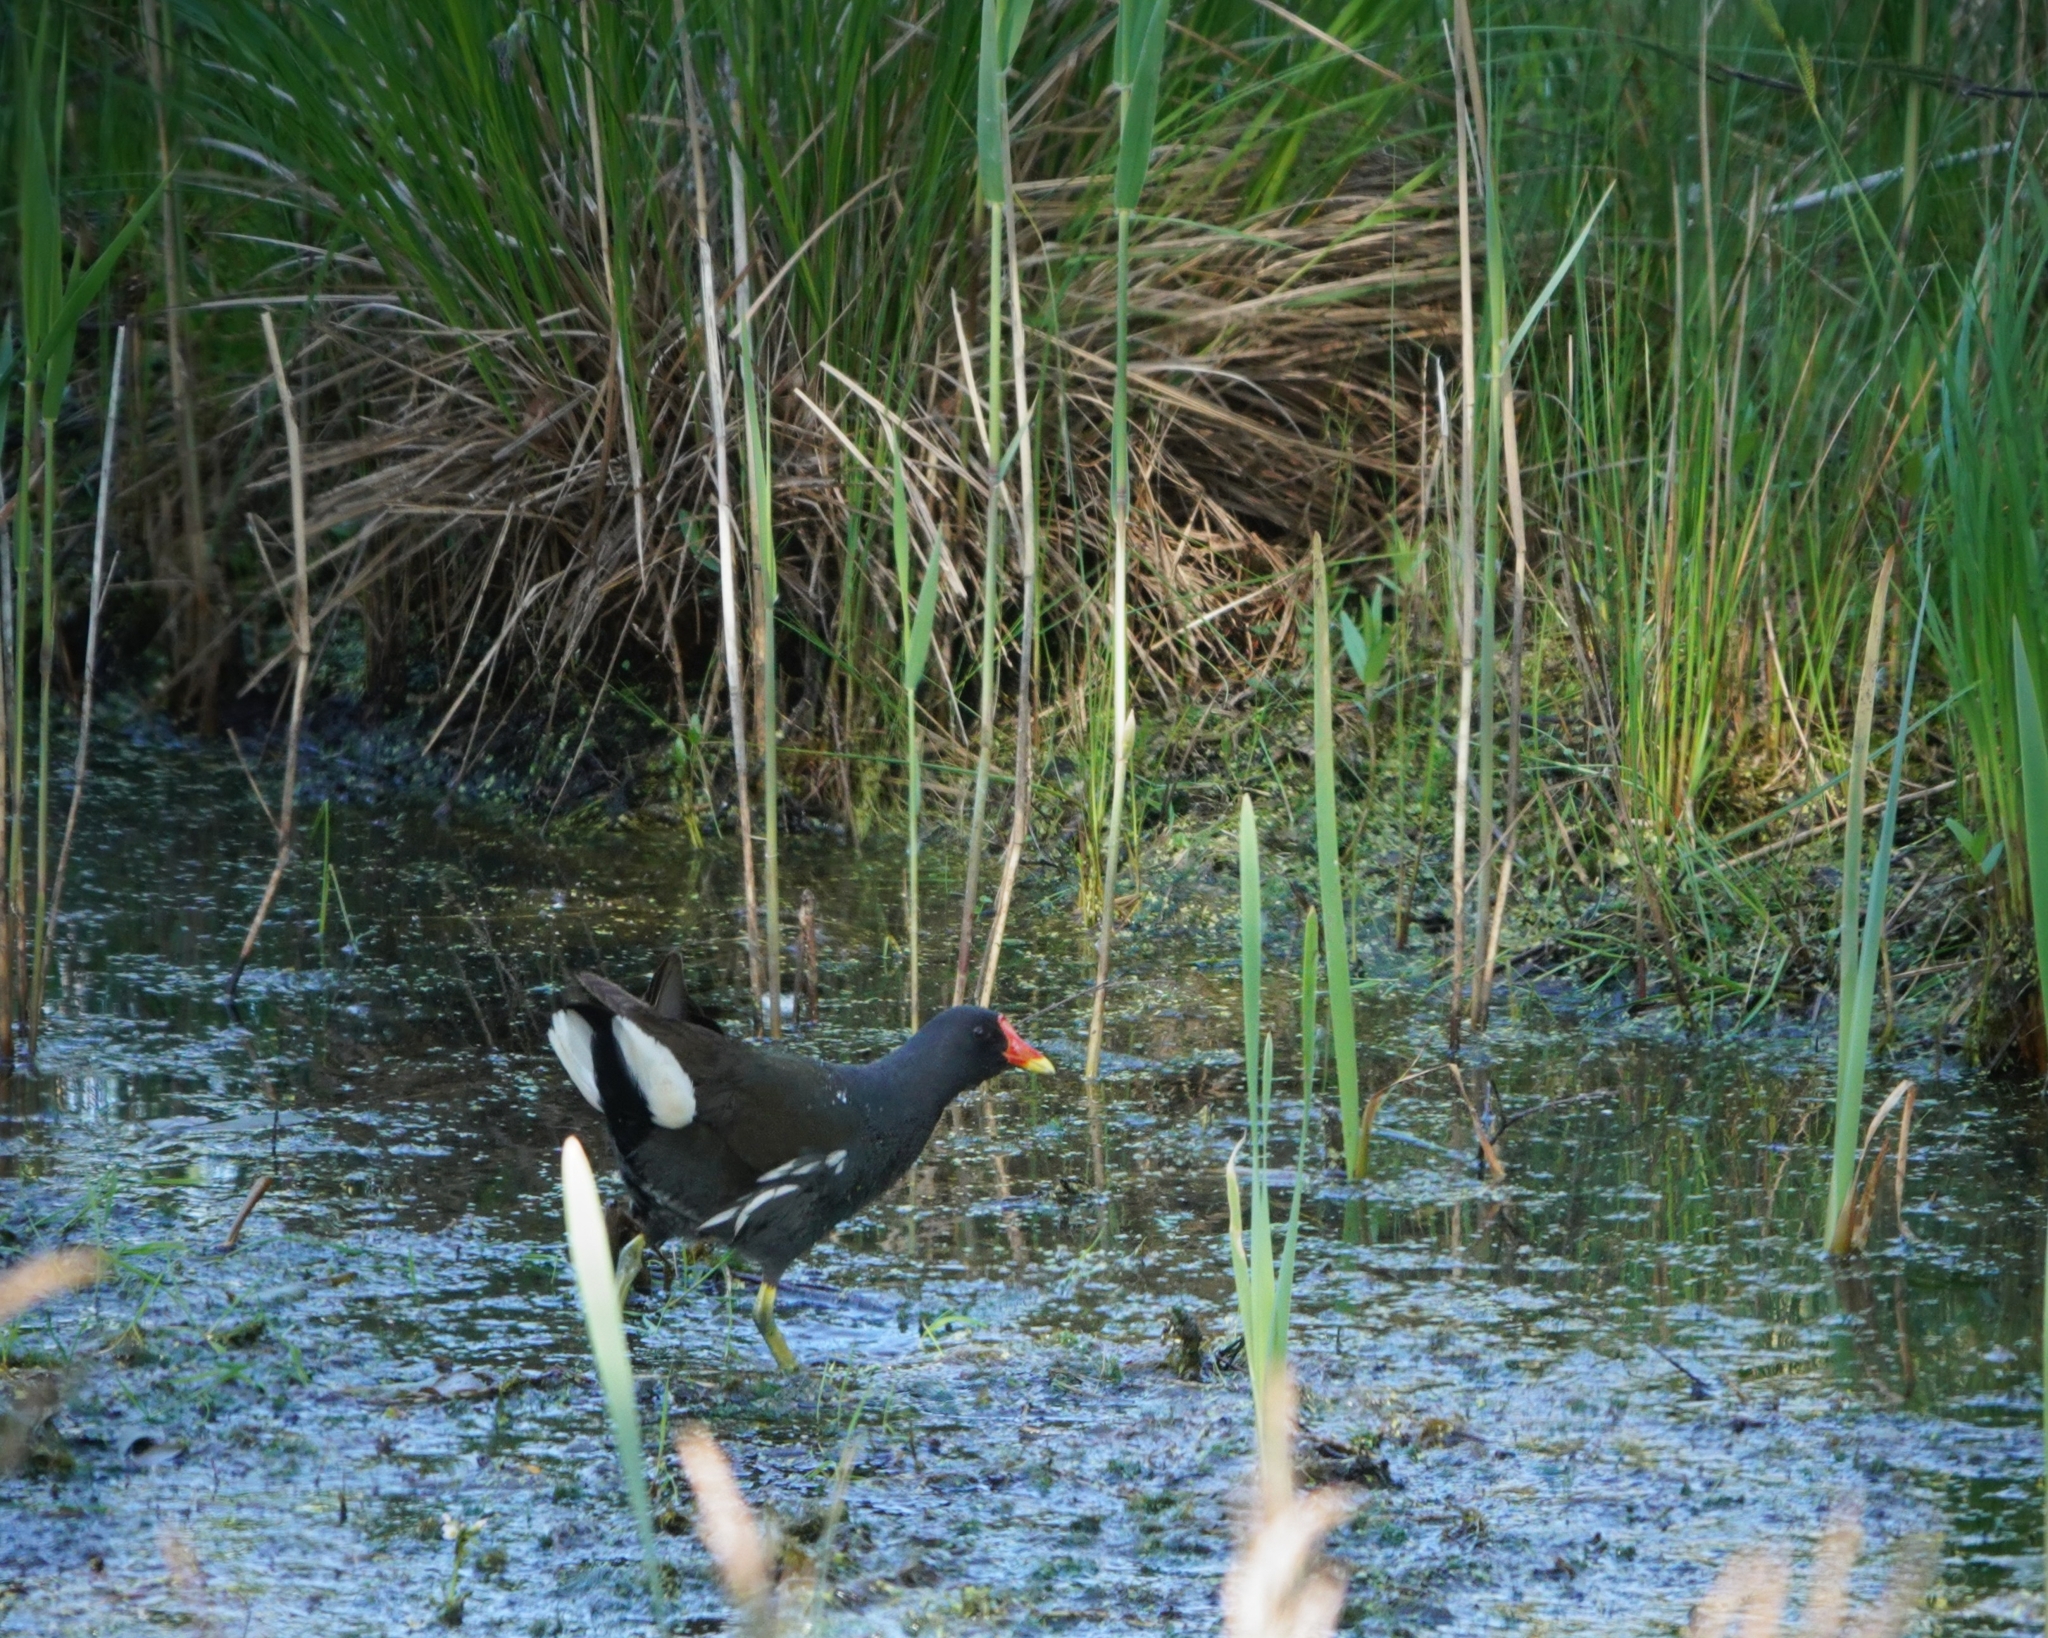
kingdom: Animalia
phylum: Chordata
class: Aves
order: Gruiformes
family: Rallidae
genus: Gallinula
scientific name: Gallinula chloropus
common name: Common moorhen
